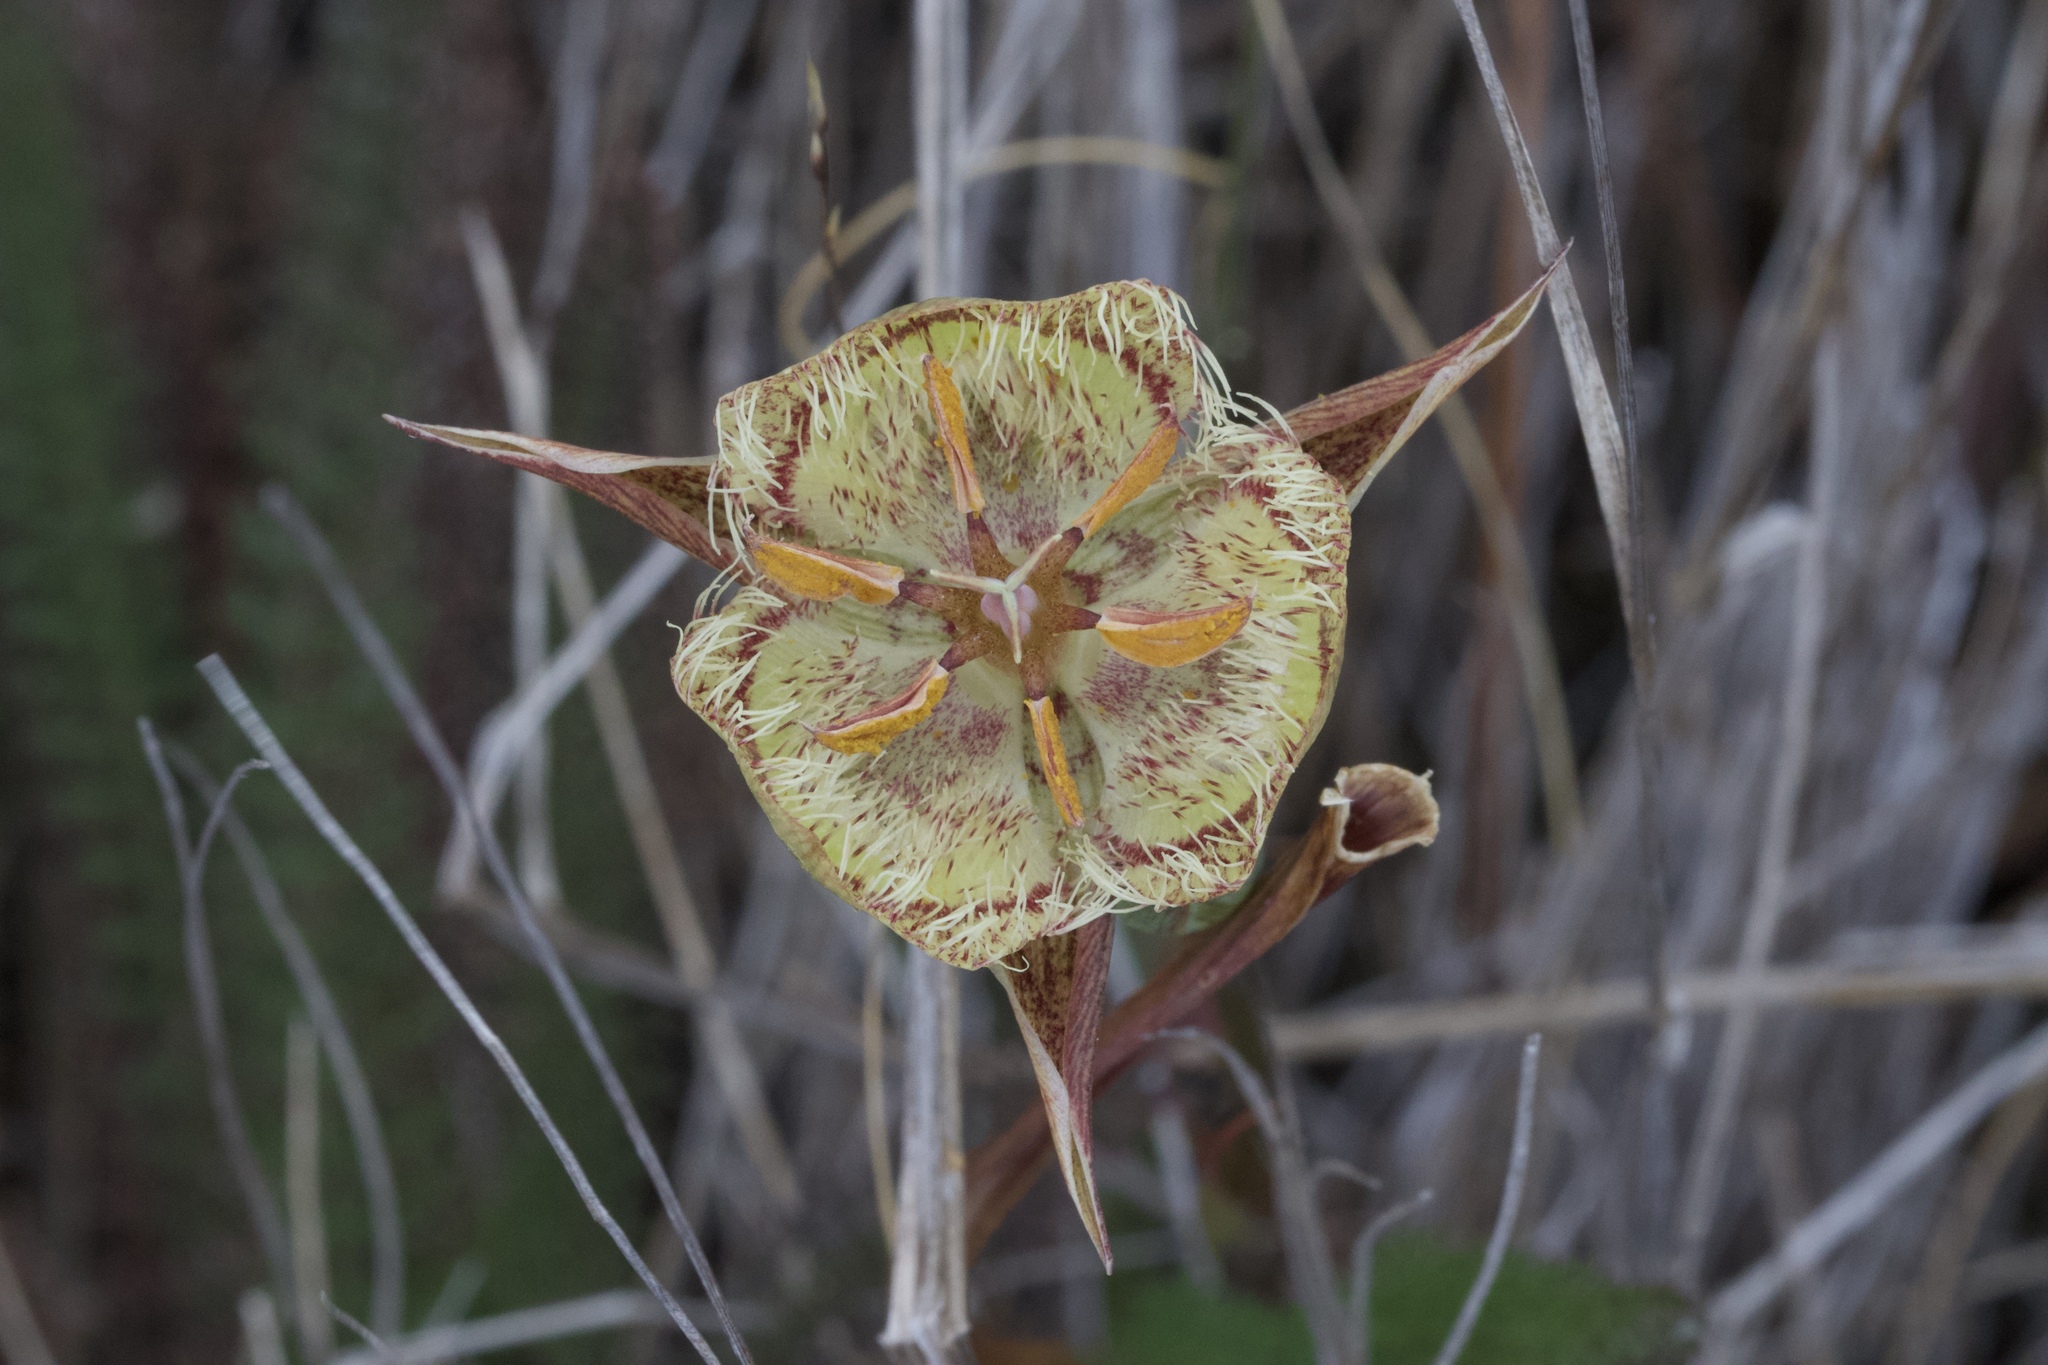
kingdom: Plantae
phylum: Tracheophyta
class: Liliopsida
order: Liliales
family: Liliaceae
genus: Calochortus
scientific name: Calochortus tiburonensis
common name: Tiburon mariposa-lily
